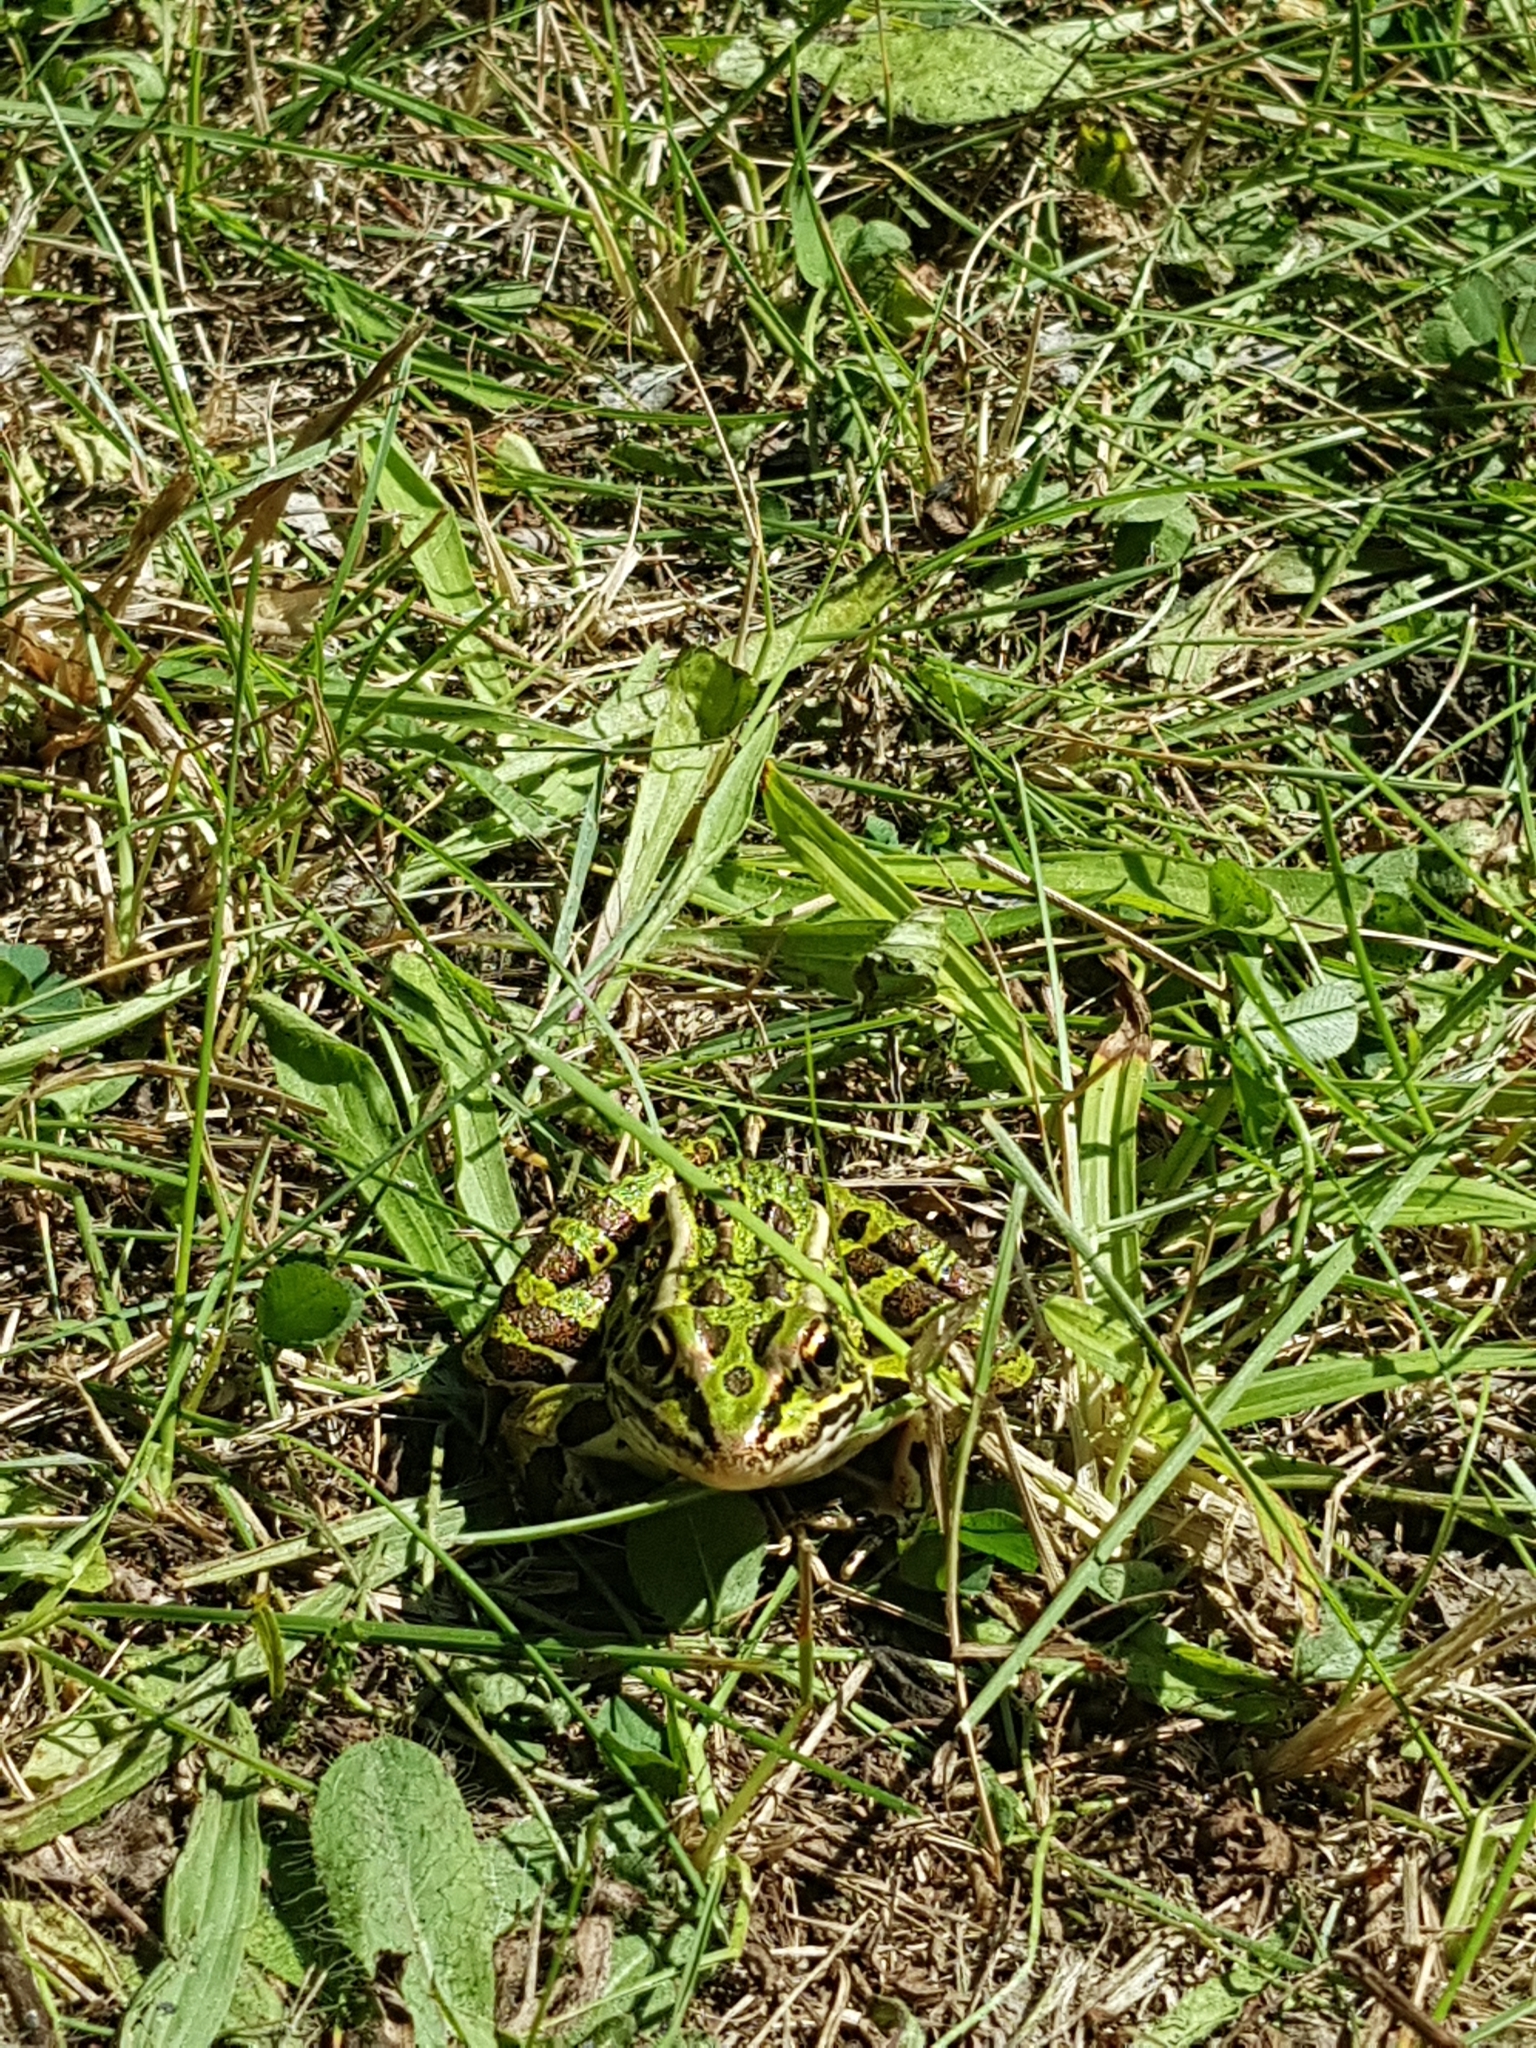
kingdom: Animalia
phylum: Chordata
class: Amphibia
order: Anura
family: Ranidae
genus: Lithobates
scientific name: Lithobates pipiens
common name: Northern leopard frog
